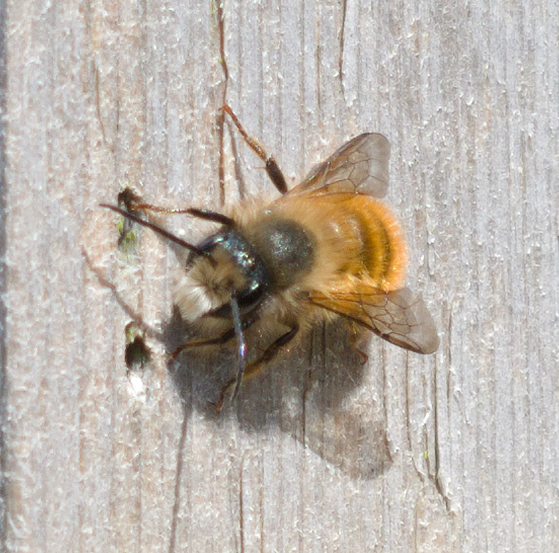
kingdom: Animalia
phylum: Arthropoda
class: Insecta
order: Hymenoptera
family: Megachilidae
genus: Osmia
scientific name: Osmia bicornis
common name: Red mason bee
